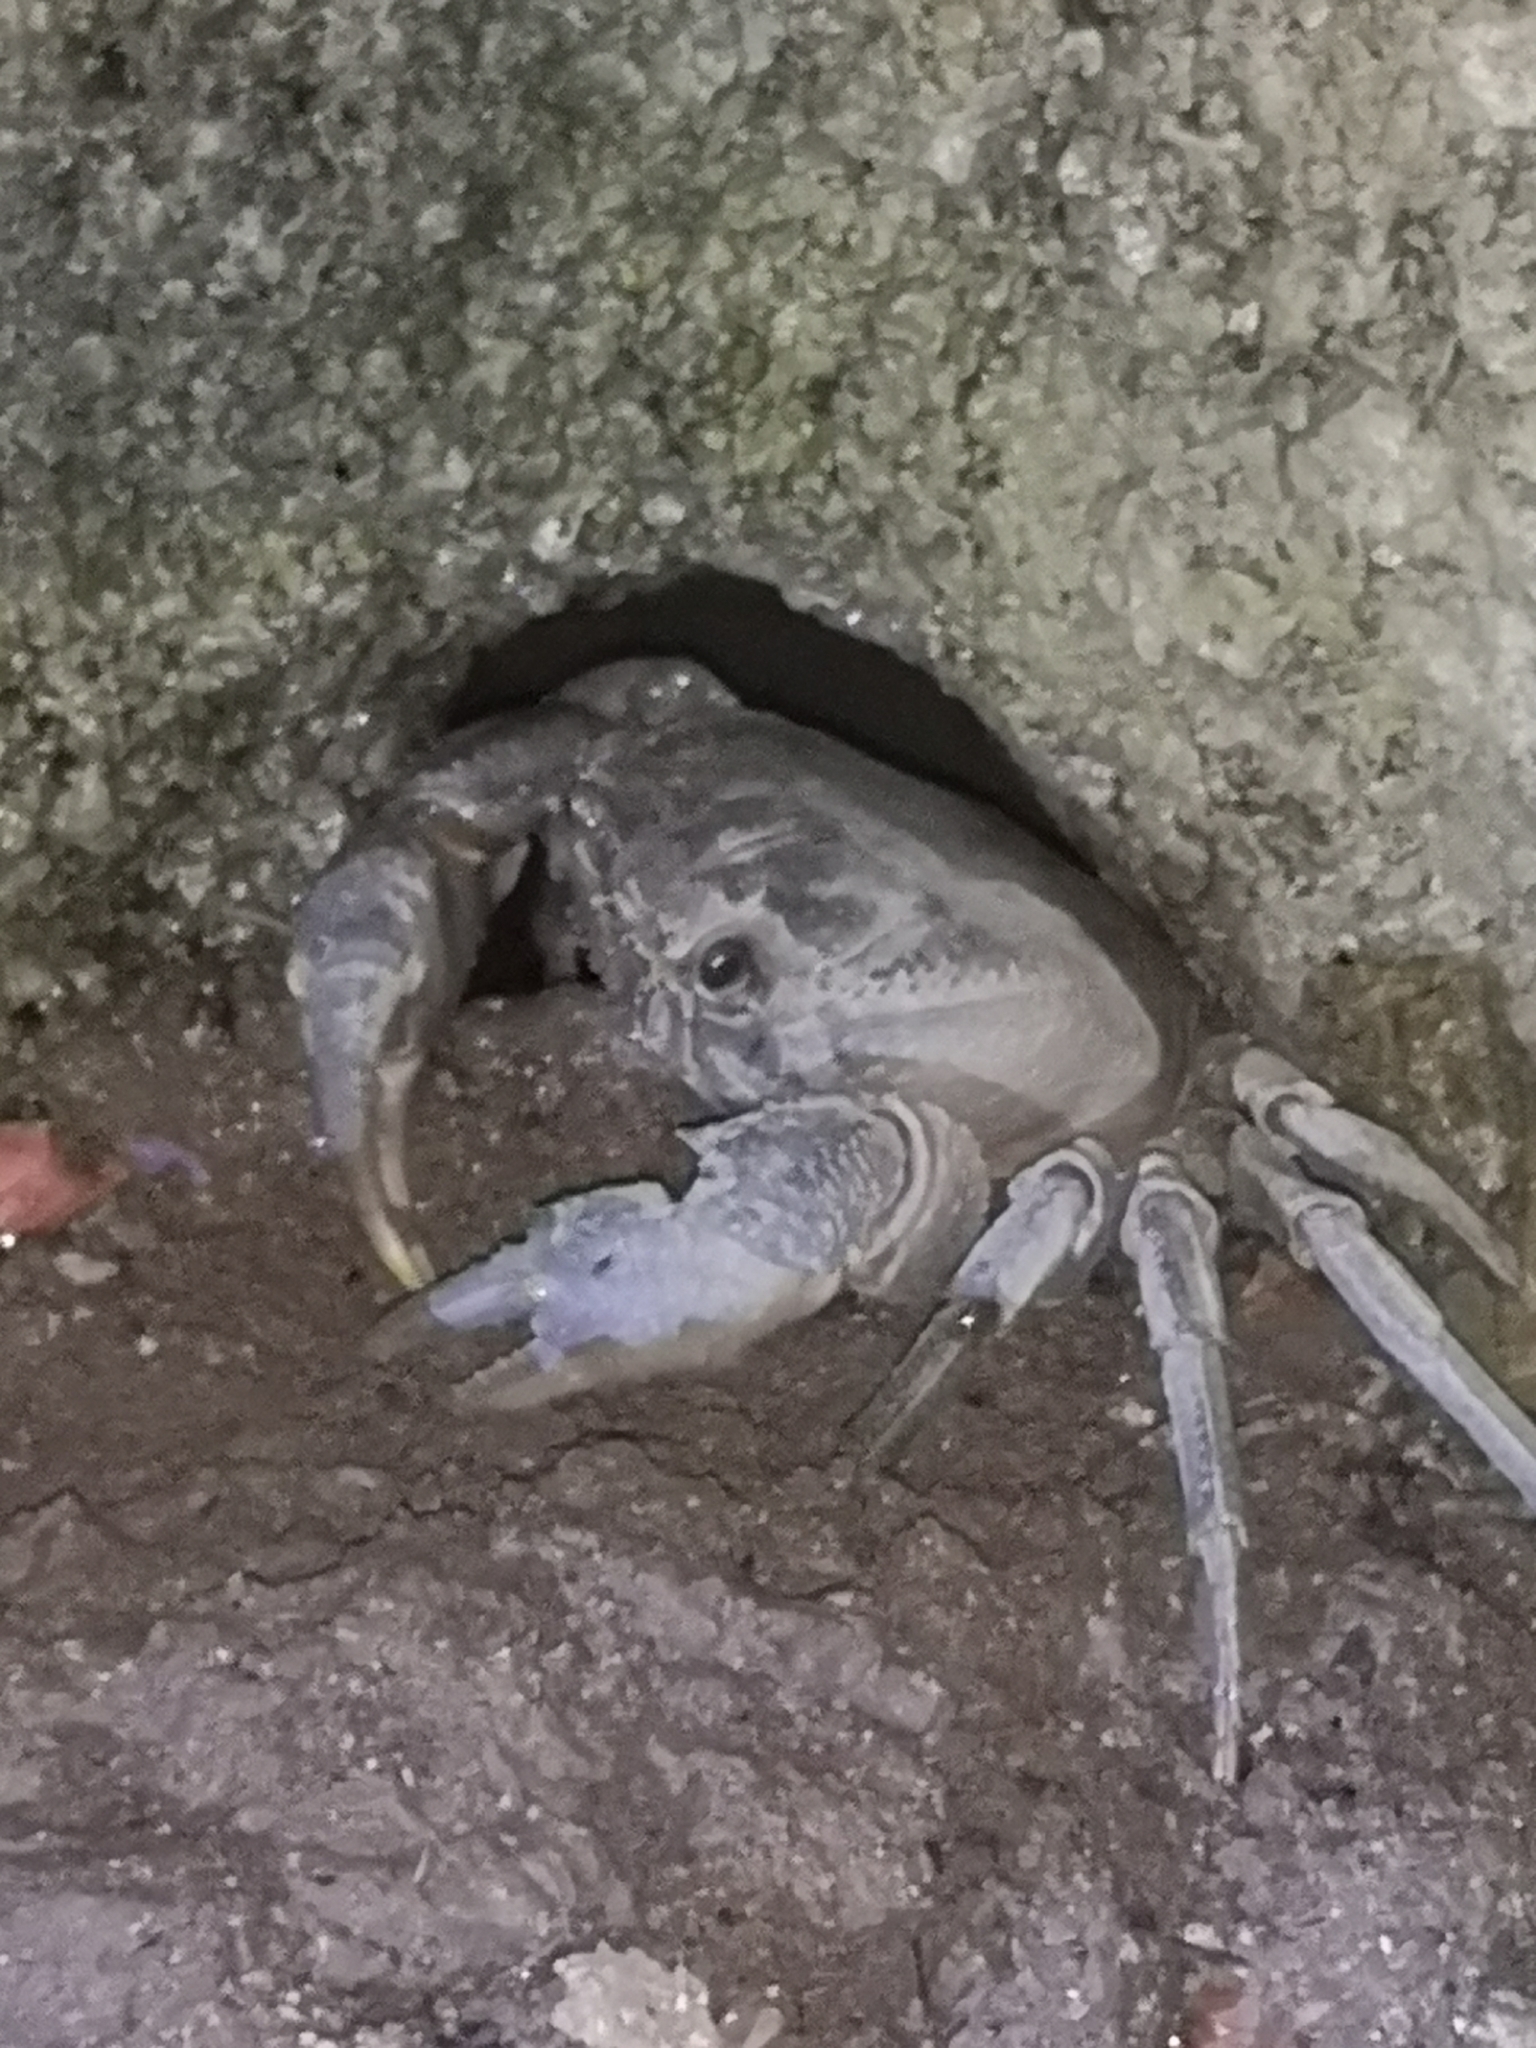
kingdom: Animalia
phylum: Arthropoda
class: Malacostraca
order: Decapoda
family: Potamidae
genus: Potamon
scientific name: Potamon fluviatile
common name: Italian freshwater crab
